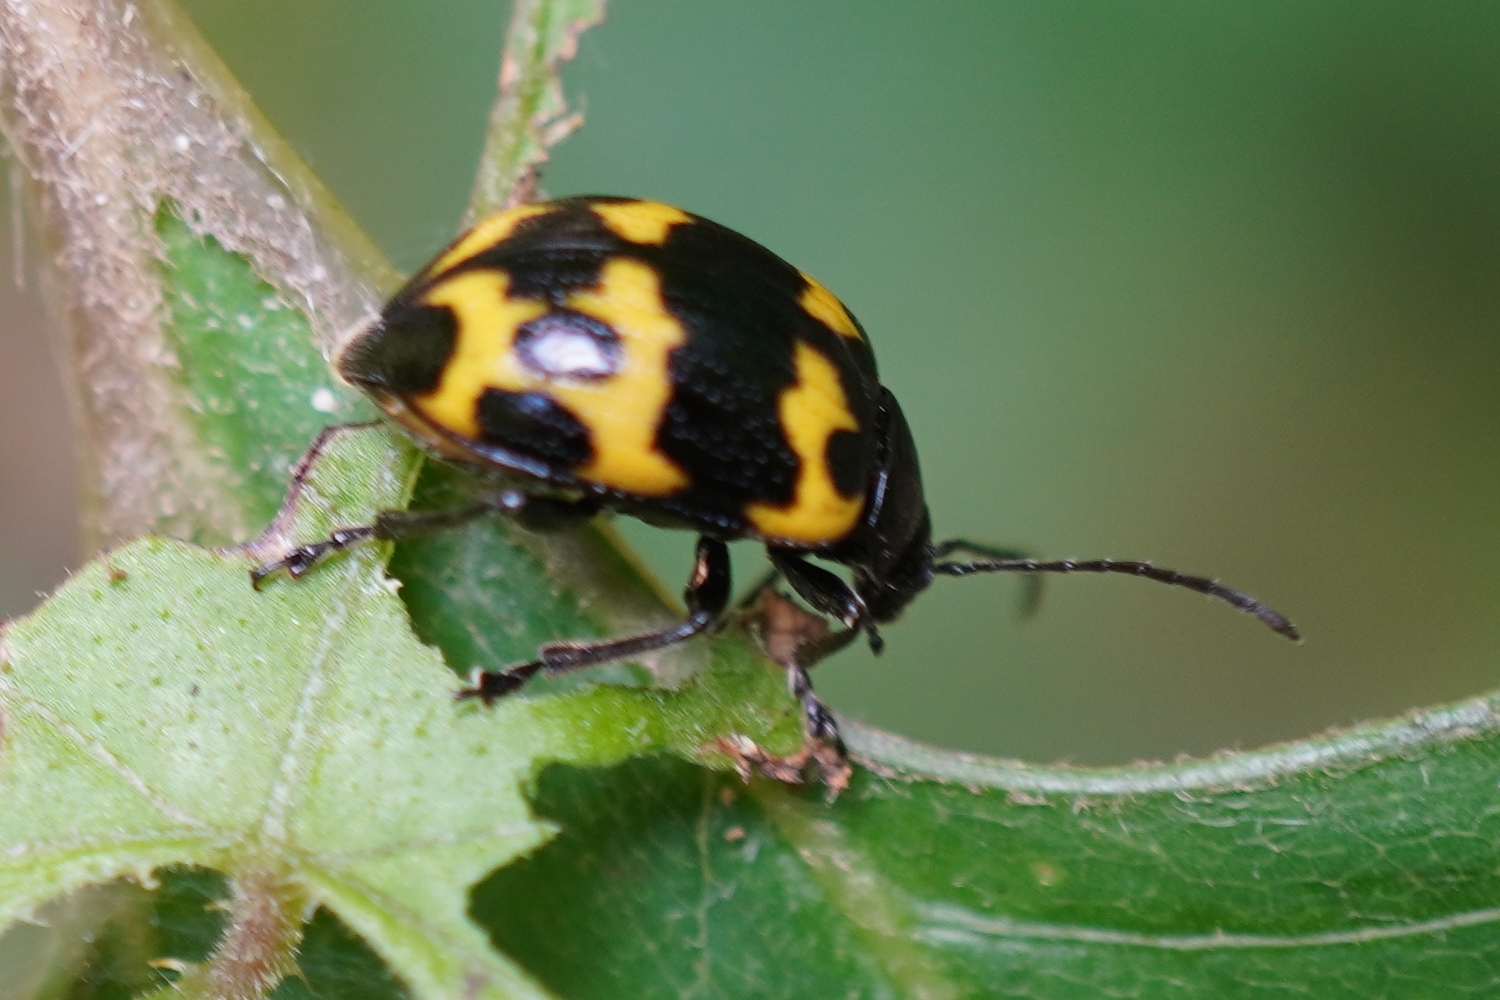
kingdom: Animalia
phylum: Arthropoda
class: Insecta
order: Coleoptera
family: Chrysomelidae
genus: Gallerucida
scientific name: Gallerucida bifasciata
